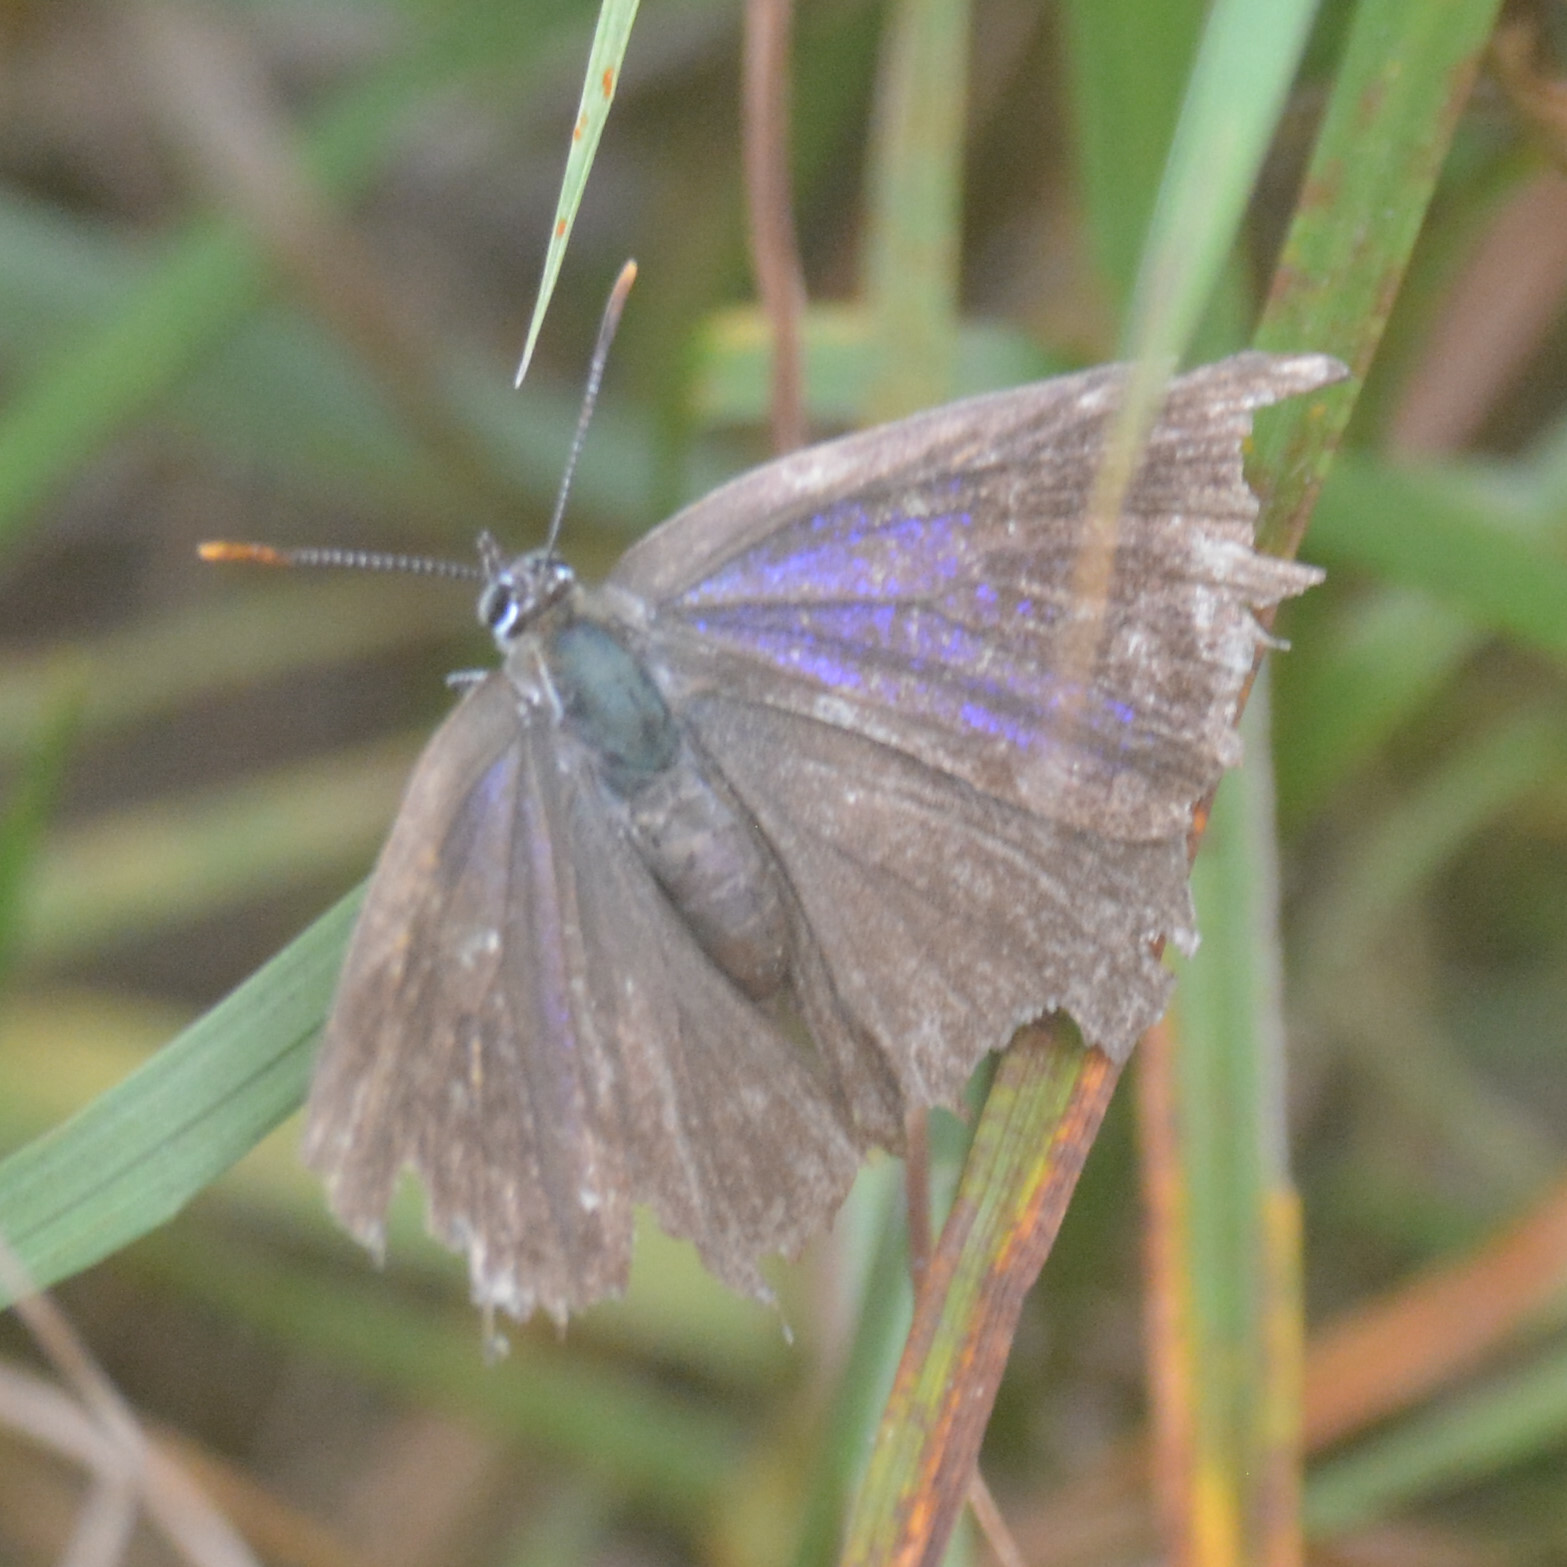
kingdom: Animalia
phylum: Arthropoda
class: Insecta
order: Lepidoptera
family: Lycaenidae
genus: Quercusia
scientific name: Quercusia quercus
